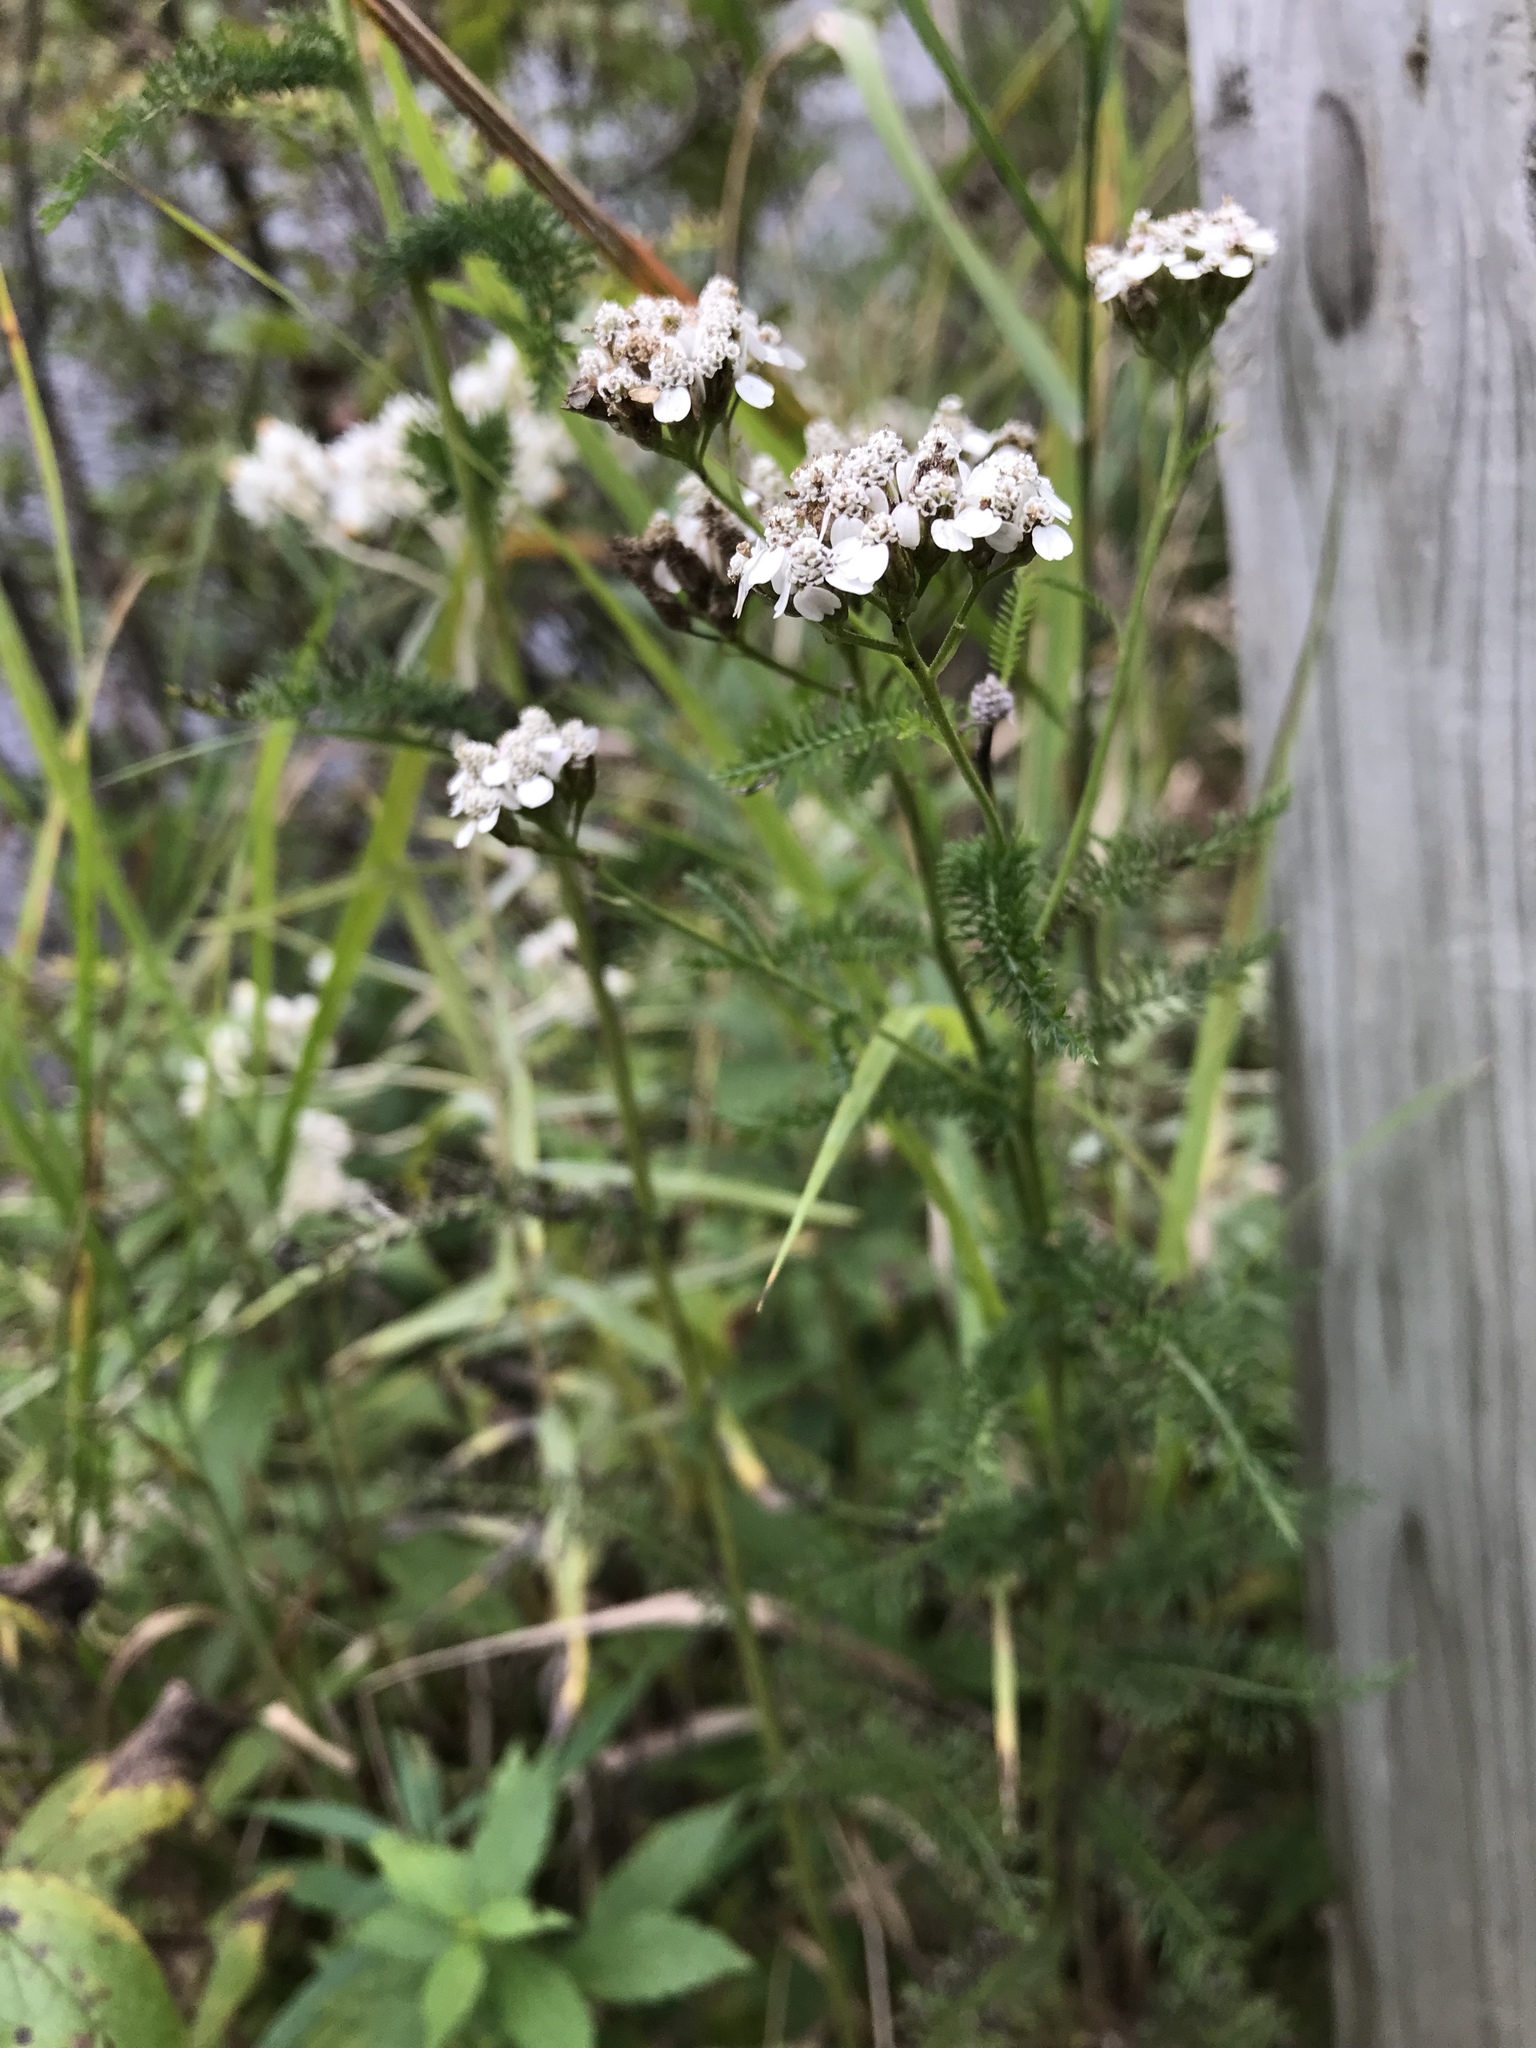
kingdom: Plantae
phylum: Tracheophyta
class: Magnoliopsida
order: Asterales
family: Asteraceae
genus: Achillea
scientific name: Achillea millefolium
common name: Yarrow
